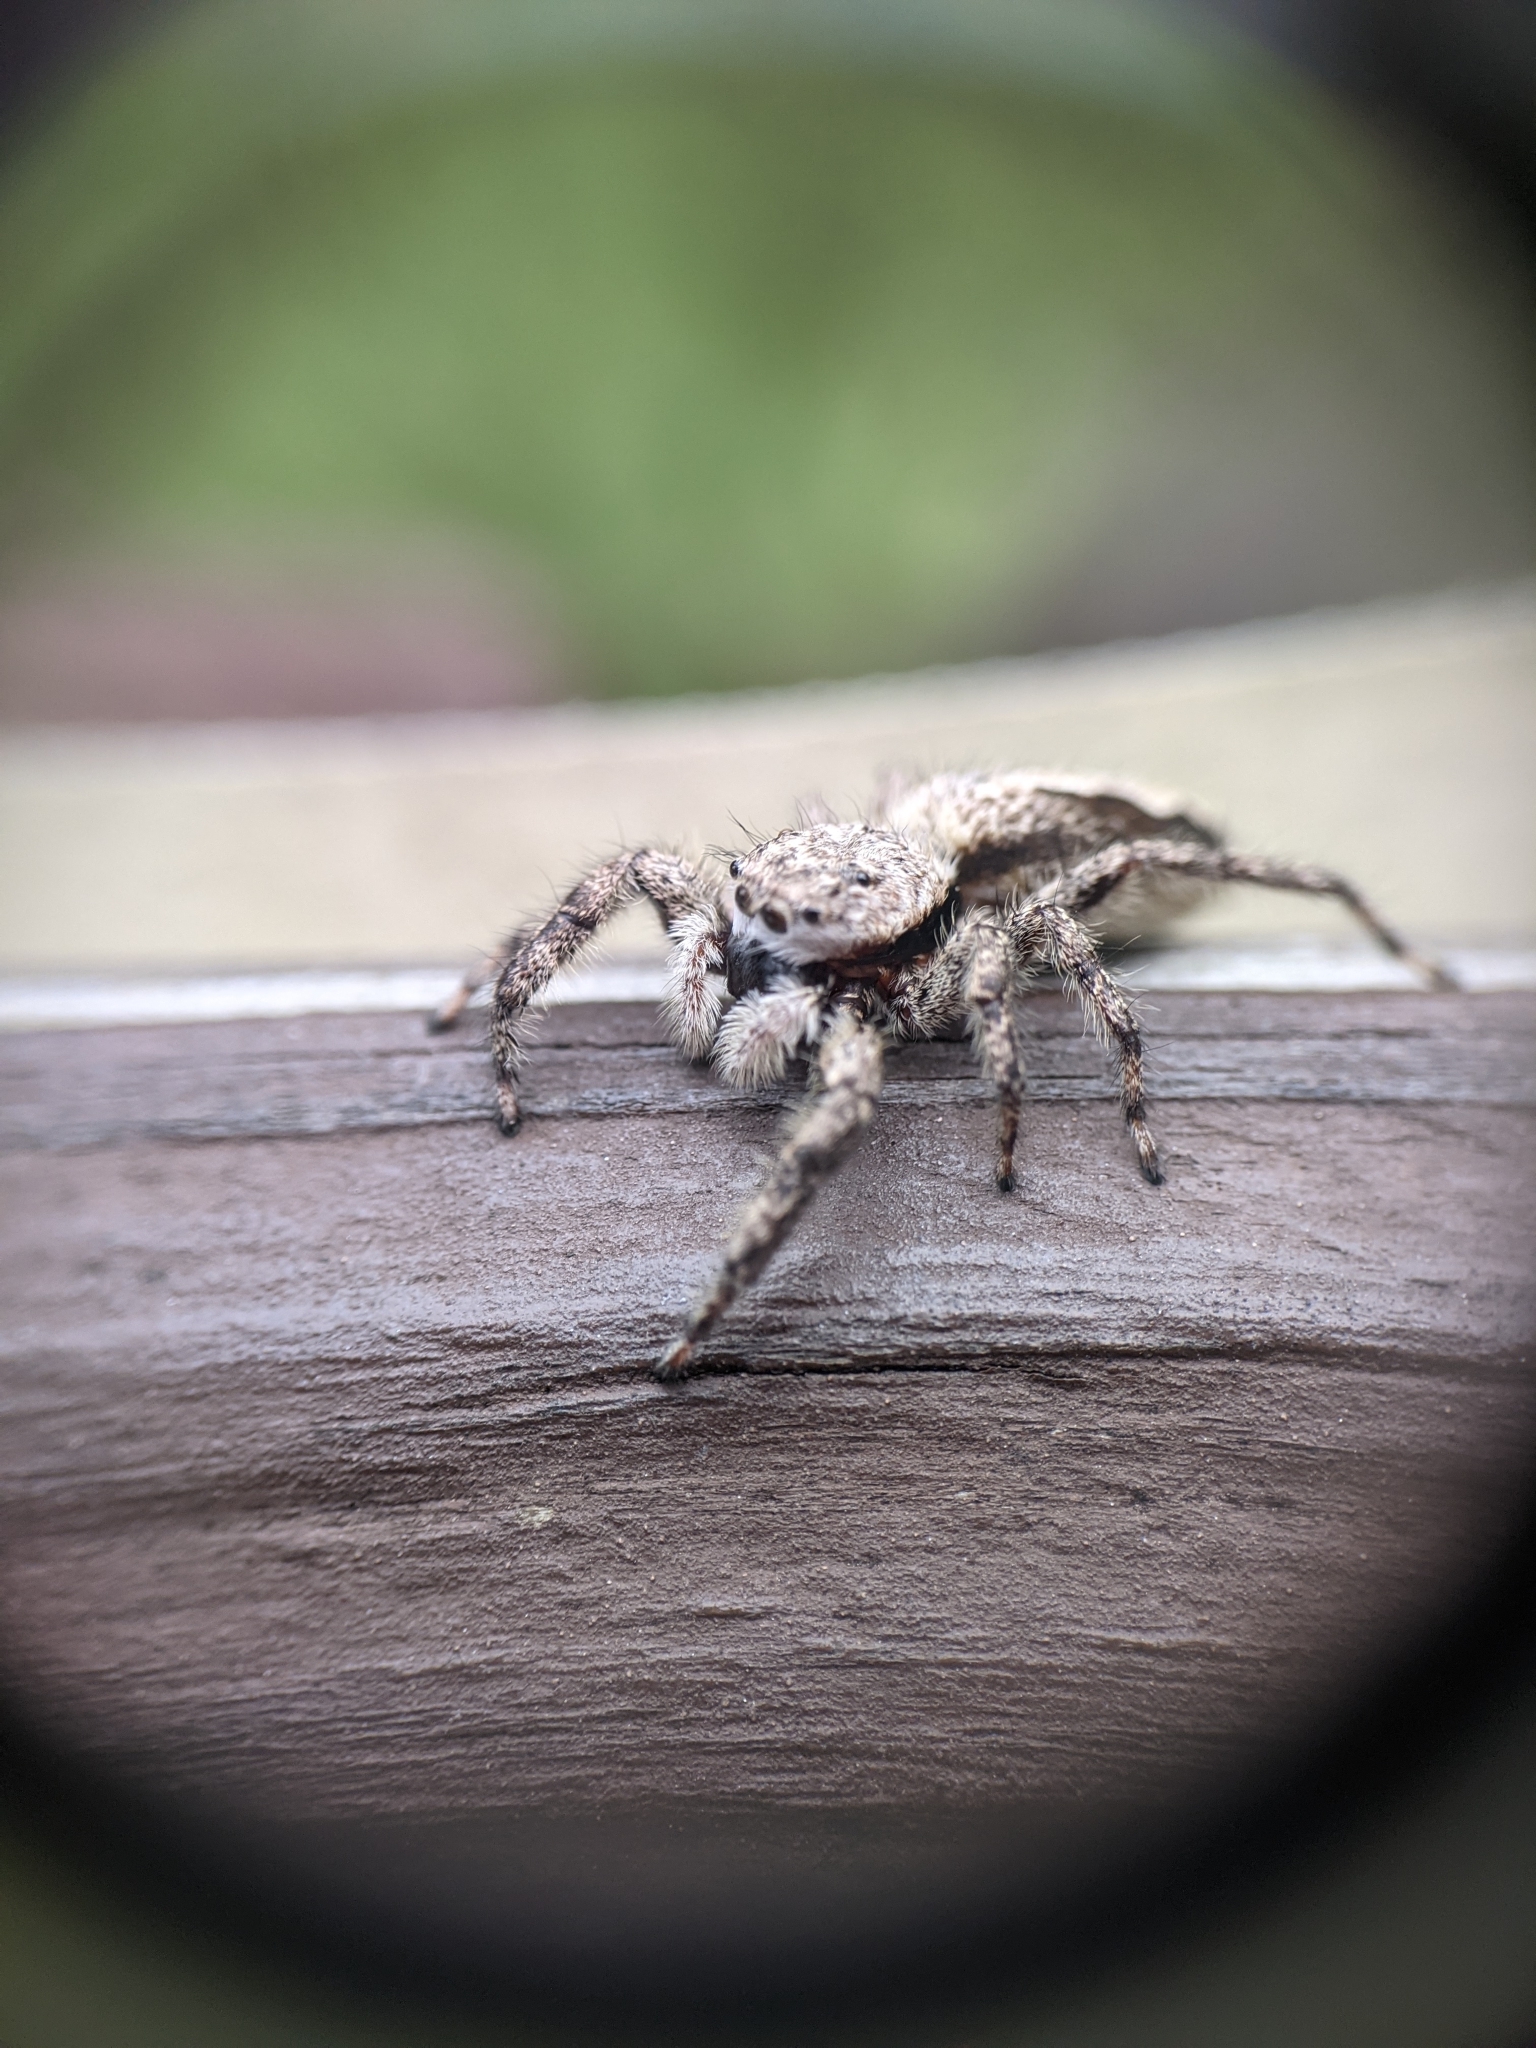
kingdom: Animalia
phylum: Arthropoda
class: Arachnida
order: Araneae
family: Salticidae
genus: Platycryptus
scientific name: Platycryptus undatus
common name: Tan jumping spider
